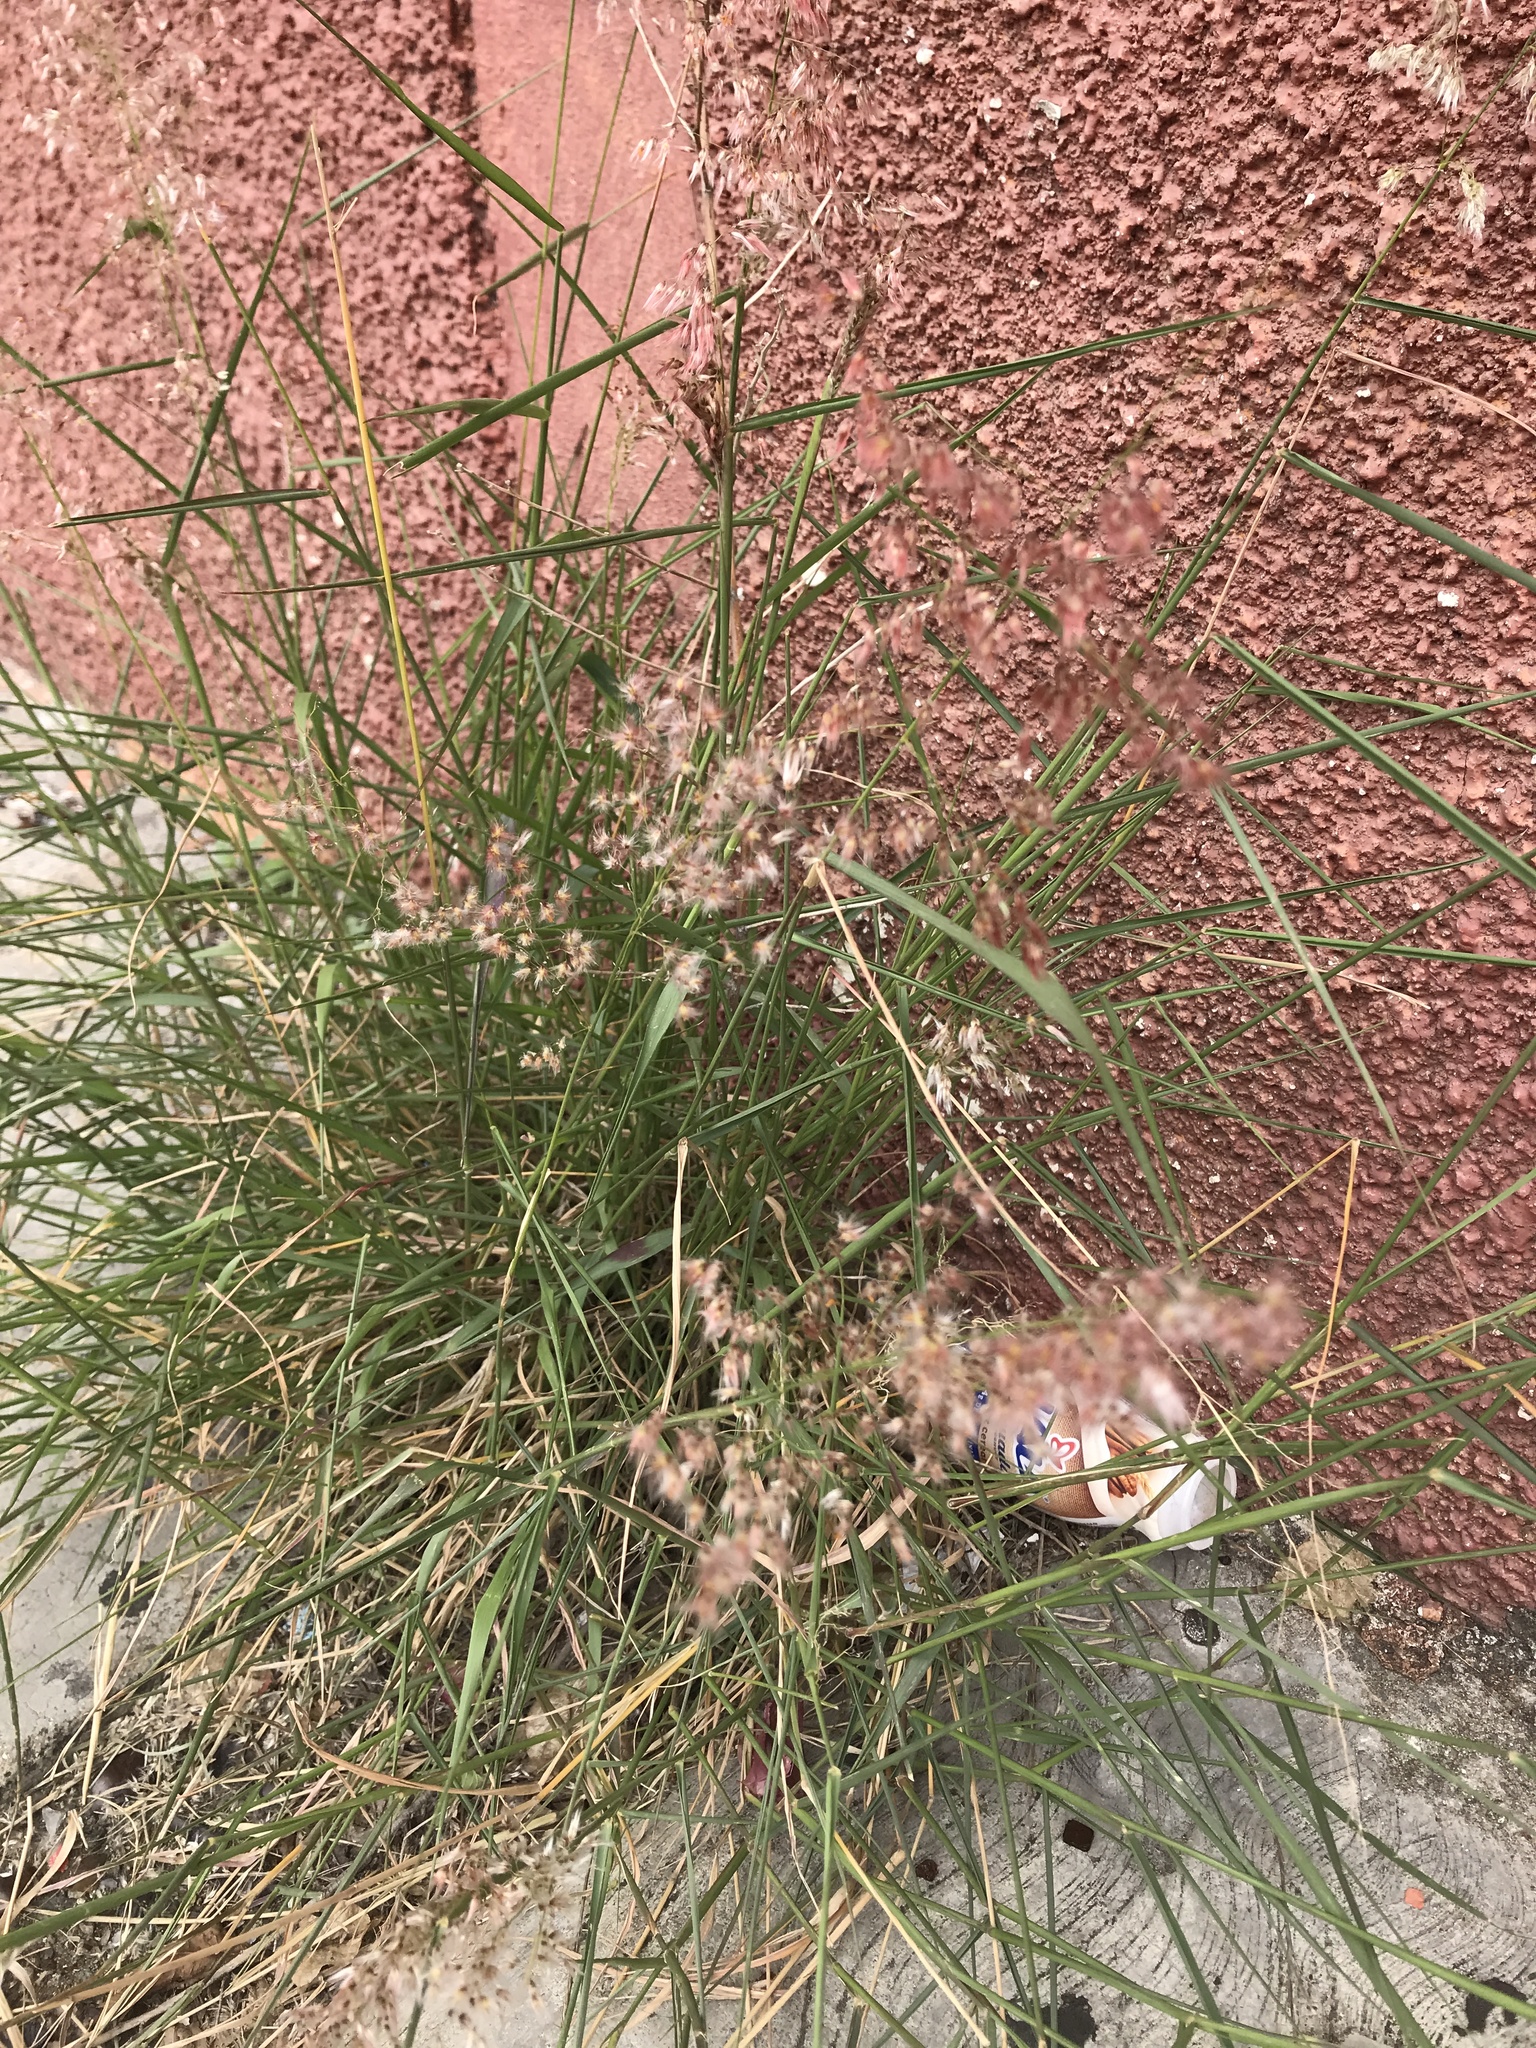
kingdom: Plantae
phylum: Tracheophyta
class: Liliopsida
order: Poales
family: Poaceae
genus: Melinis
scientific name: Melinis repens
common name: Rose natal grass
